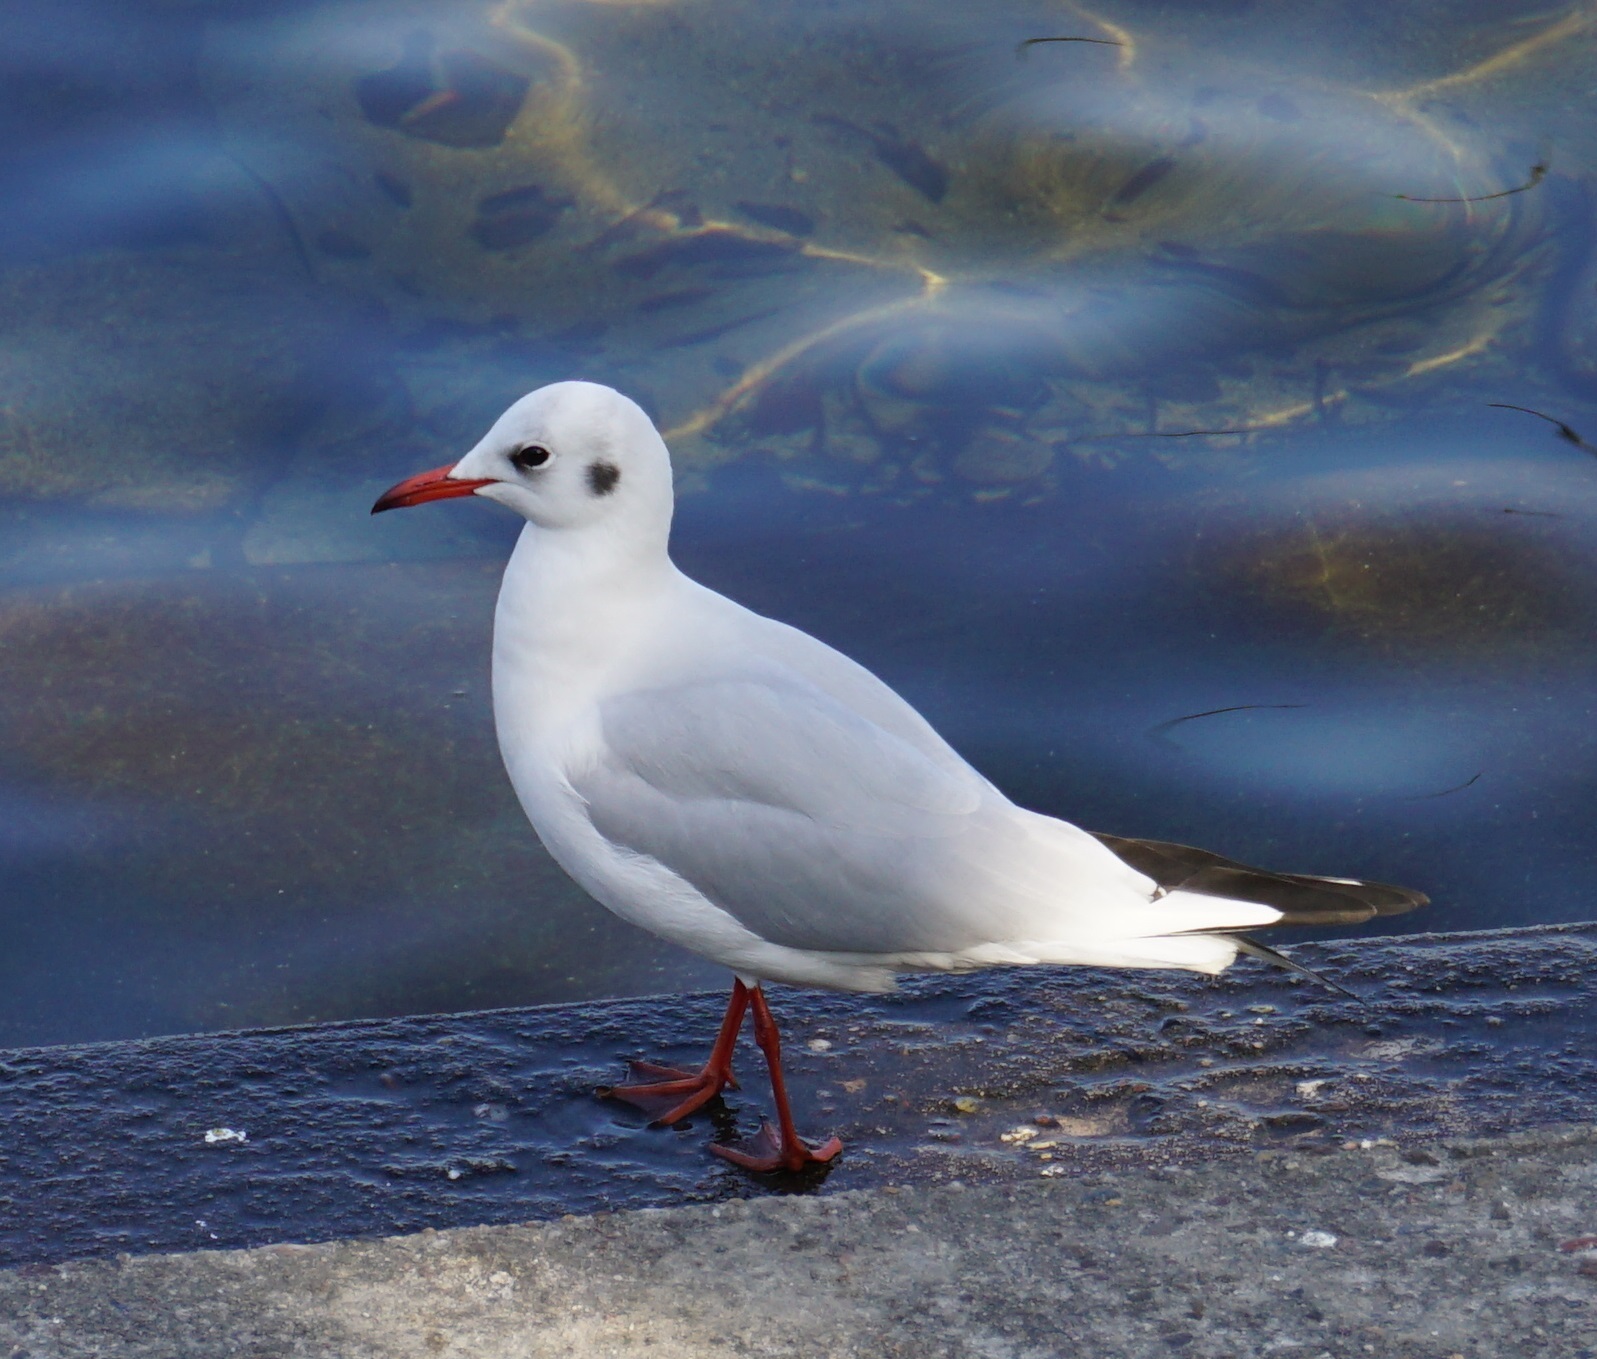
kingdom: Animalia
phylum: Chordata
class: Aves
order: Charadriiformes
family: Laridae
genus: Chroicocephalus
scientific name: Chroicocephalus ridibundus
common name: Black-headed gull
